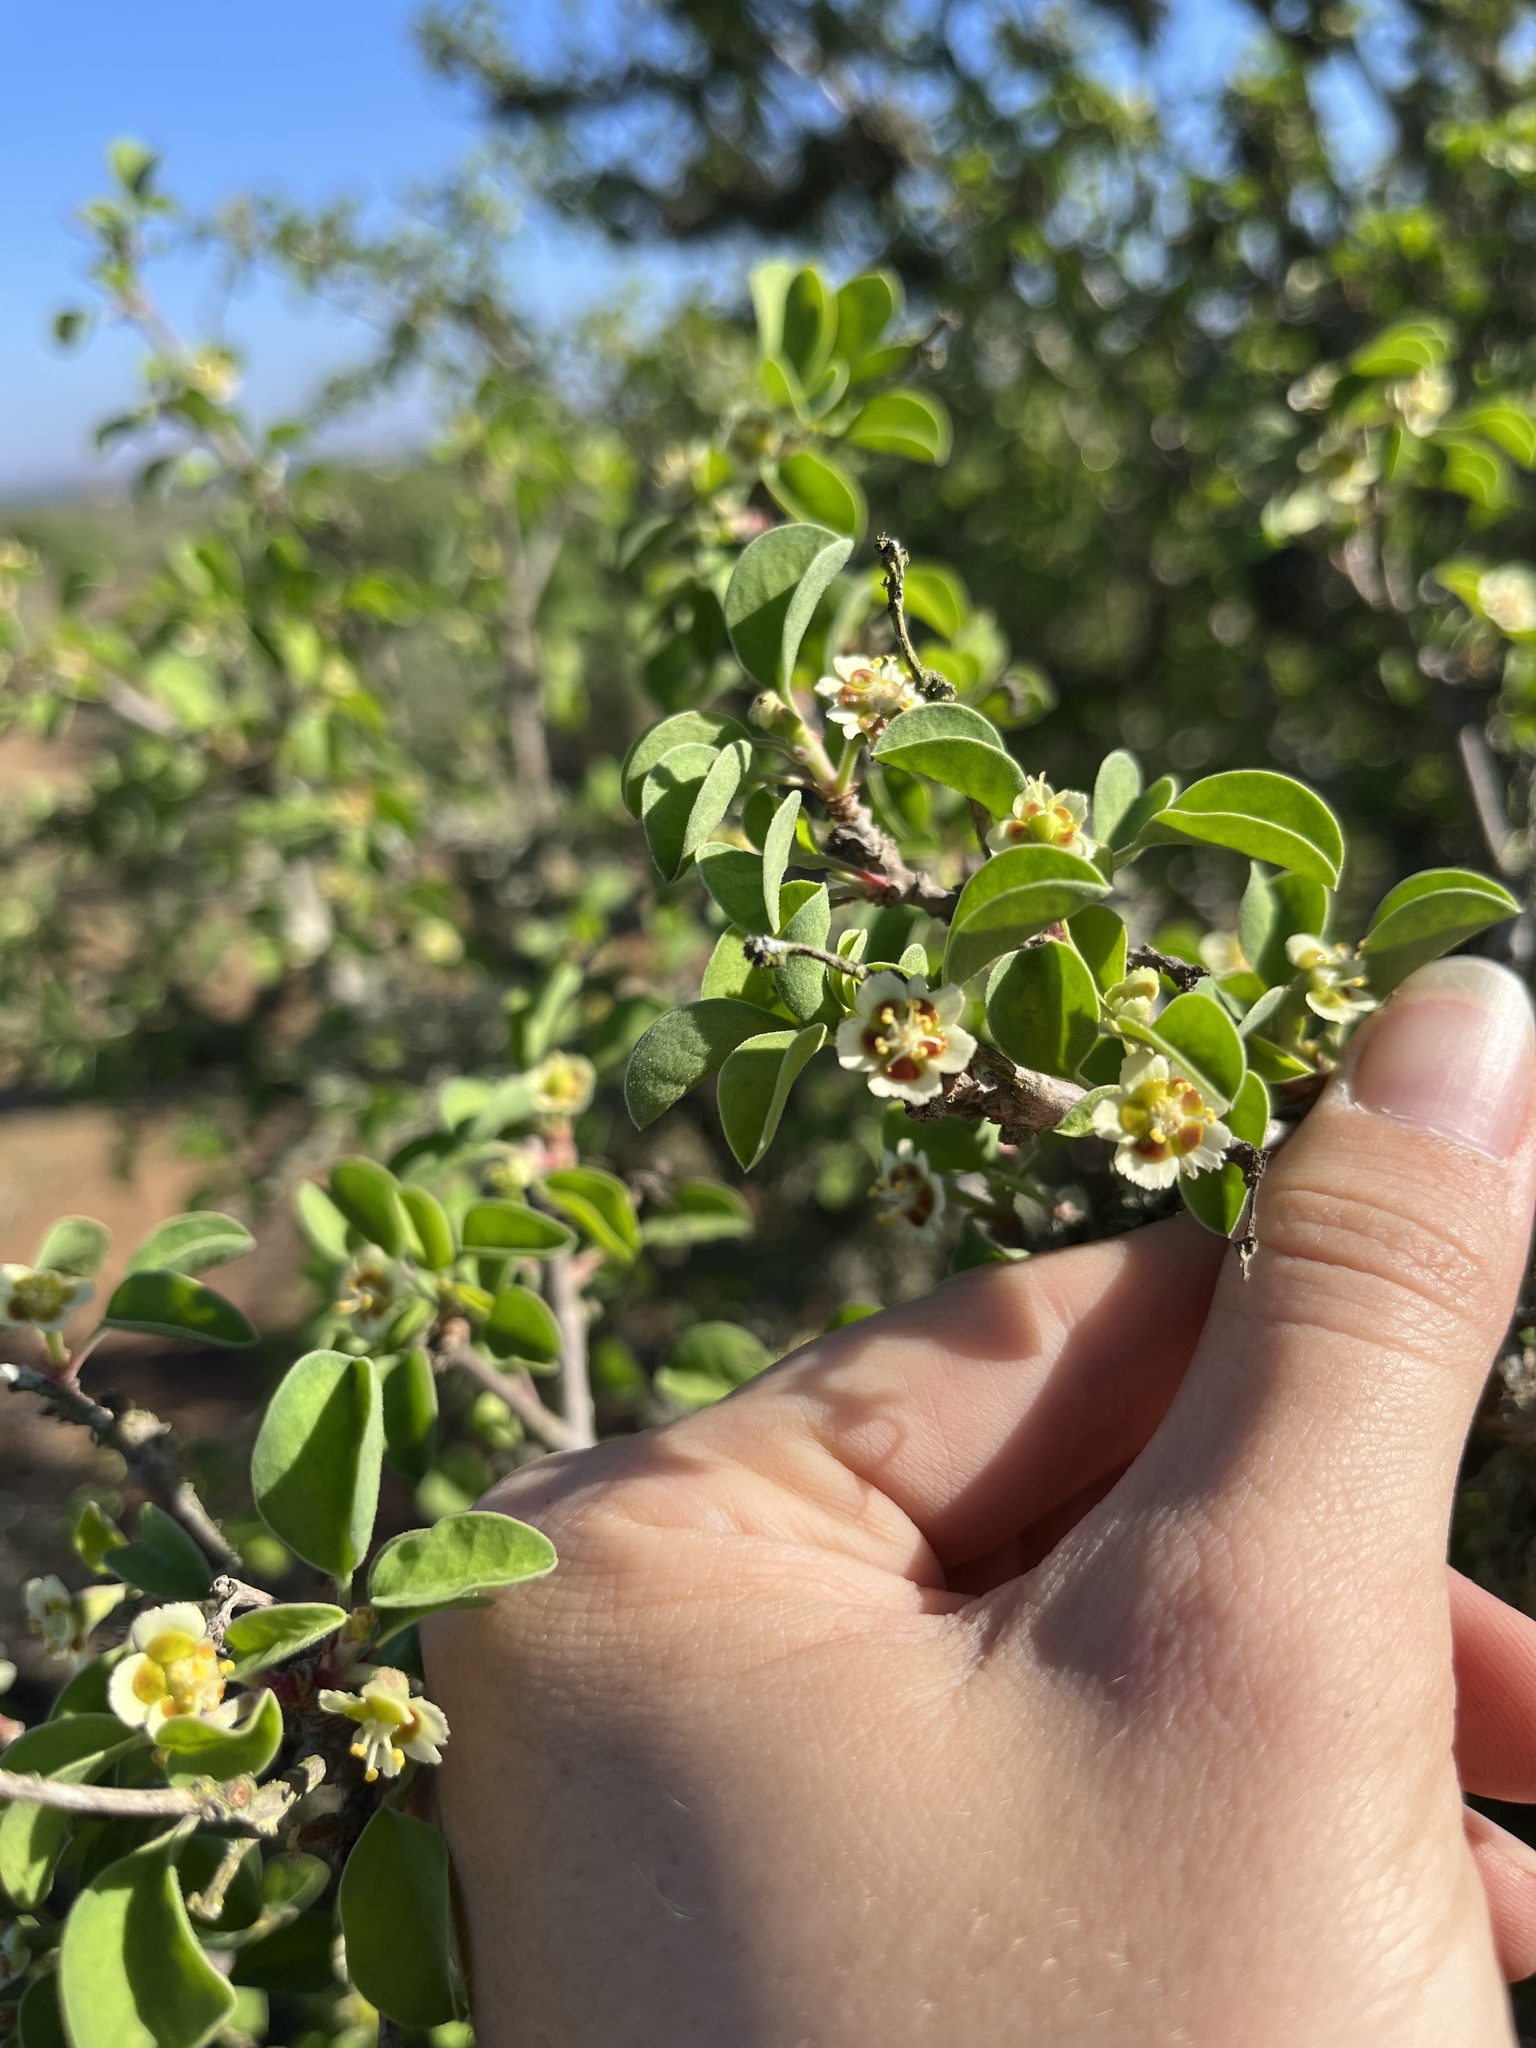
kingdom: Plantae
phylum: Tracheophyta
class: Magnoliopsida
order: Malpighiales
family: Euphorbiaceae
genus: Euphorbia
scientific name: Euphorbia misera
